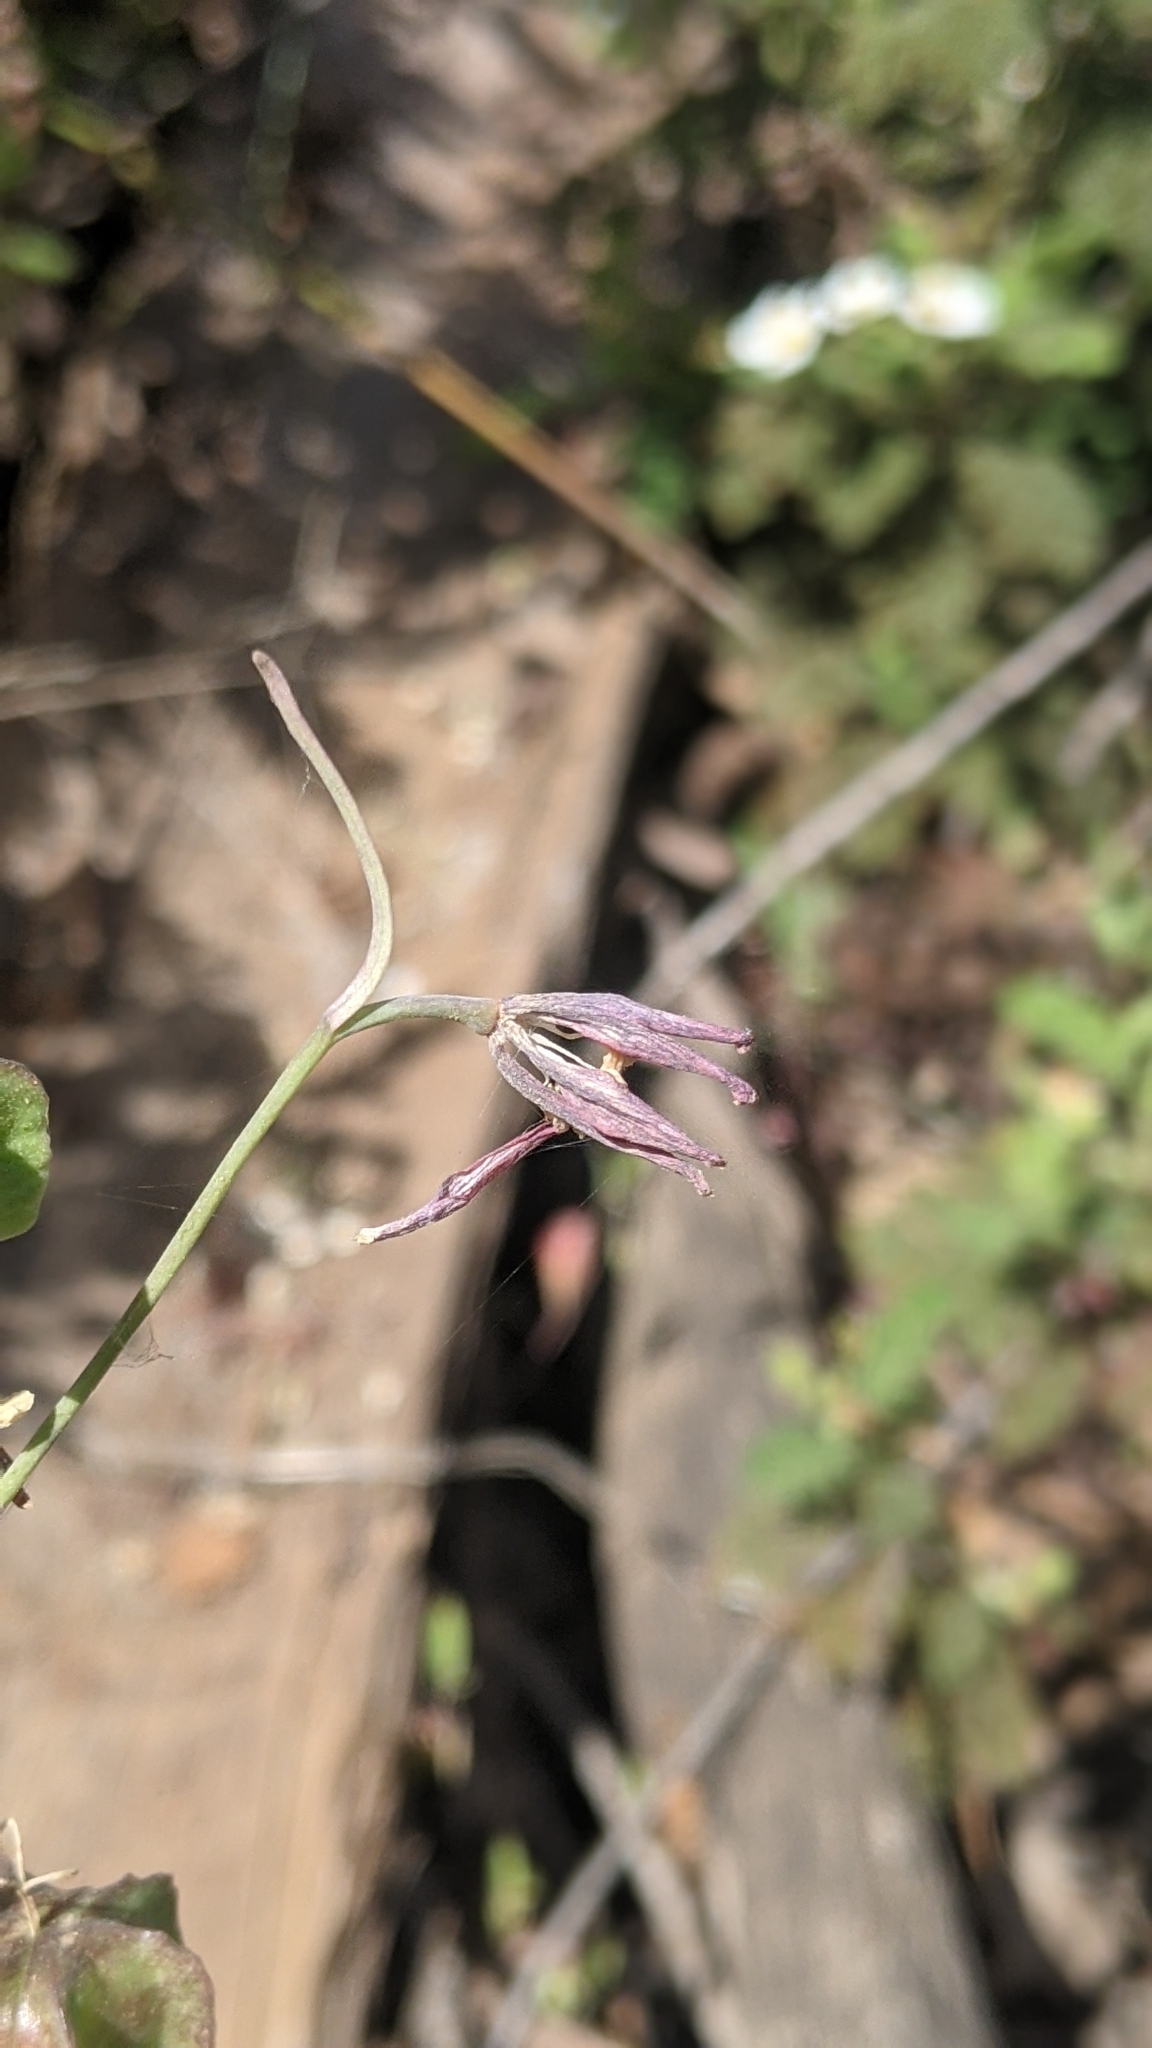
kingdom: Plantae
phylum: Tracheophyta
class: Liliopsida
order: Liliales
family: Liliaceae
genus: Fritillaria
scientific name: Fritillaria micrantha
